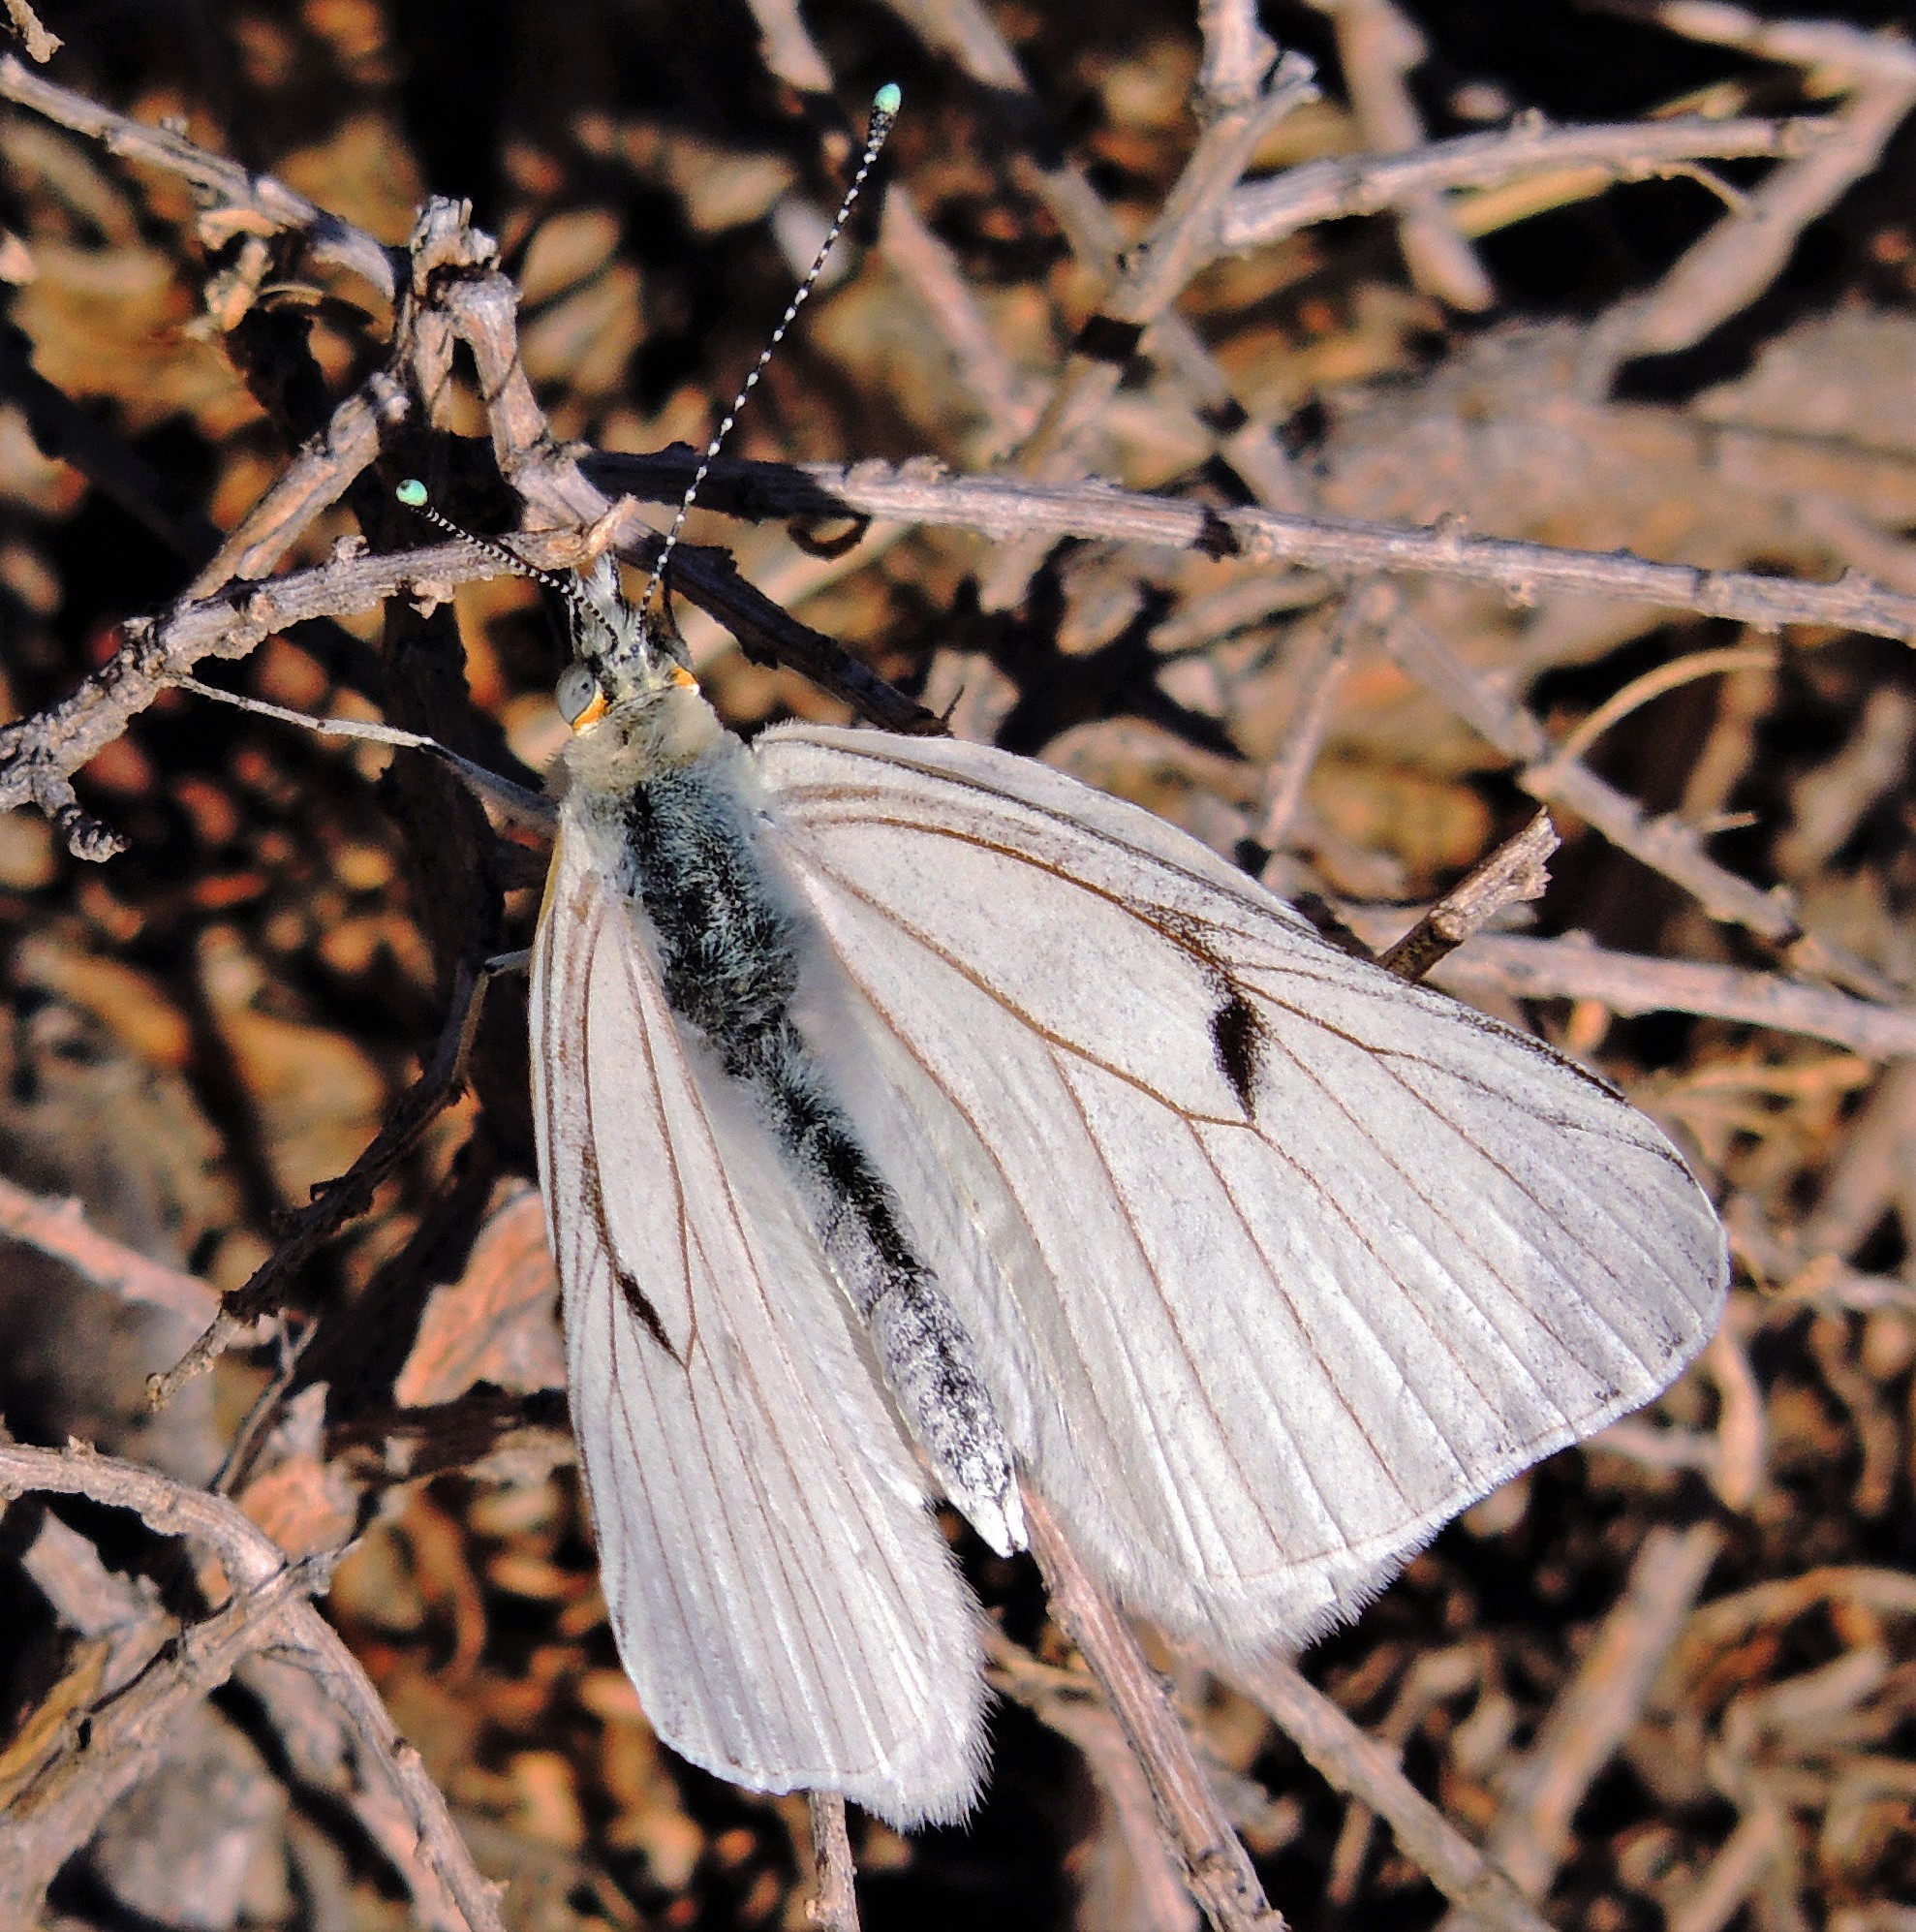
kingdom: Animalia
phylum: Arthropoda
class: Insecta
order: Lepidoptera
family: Pieridae
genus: Tatochila
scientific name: Tatochila mercedis
